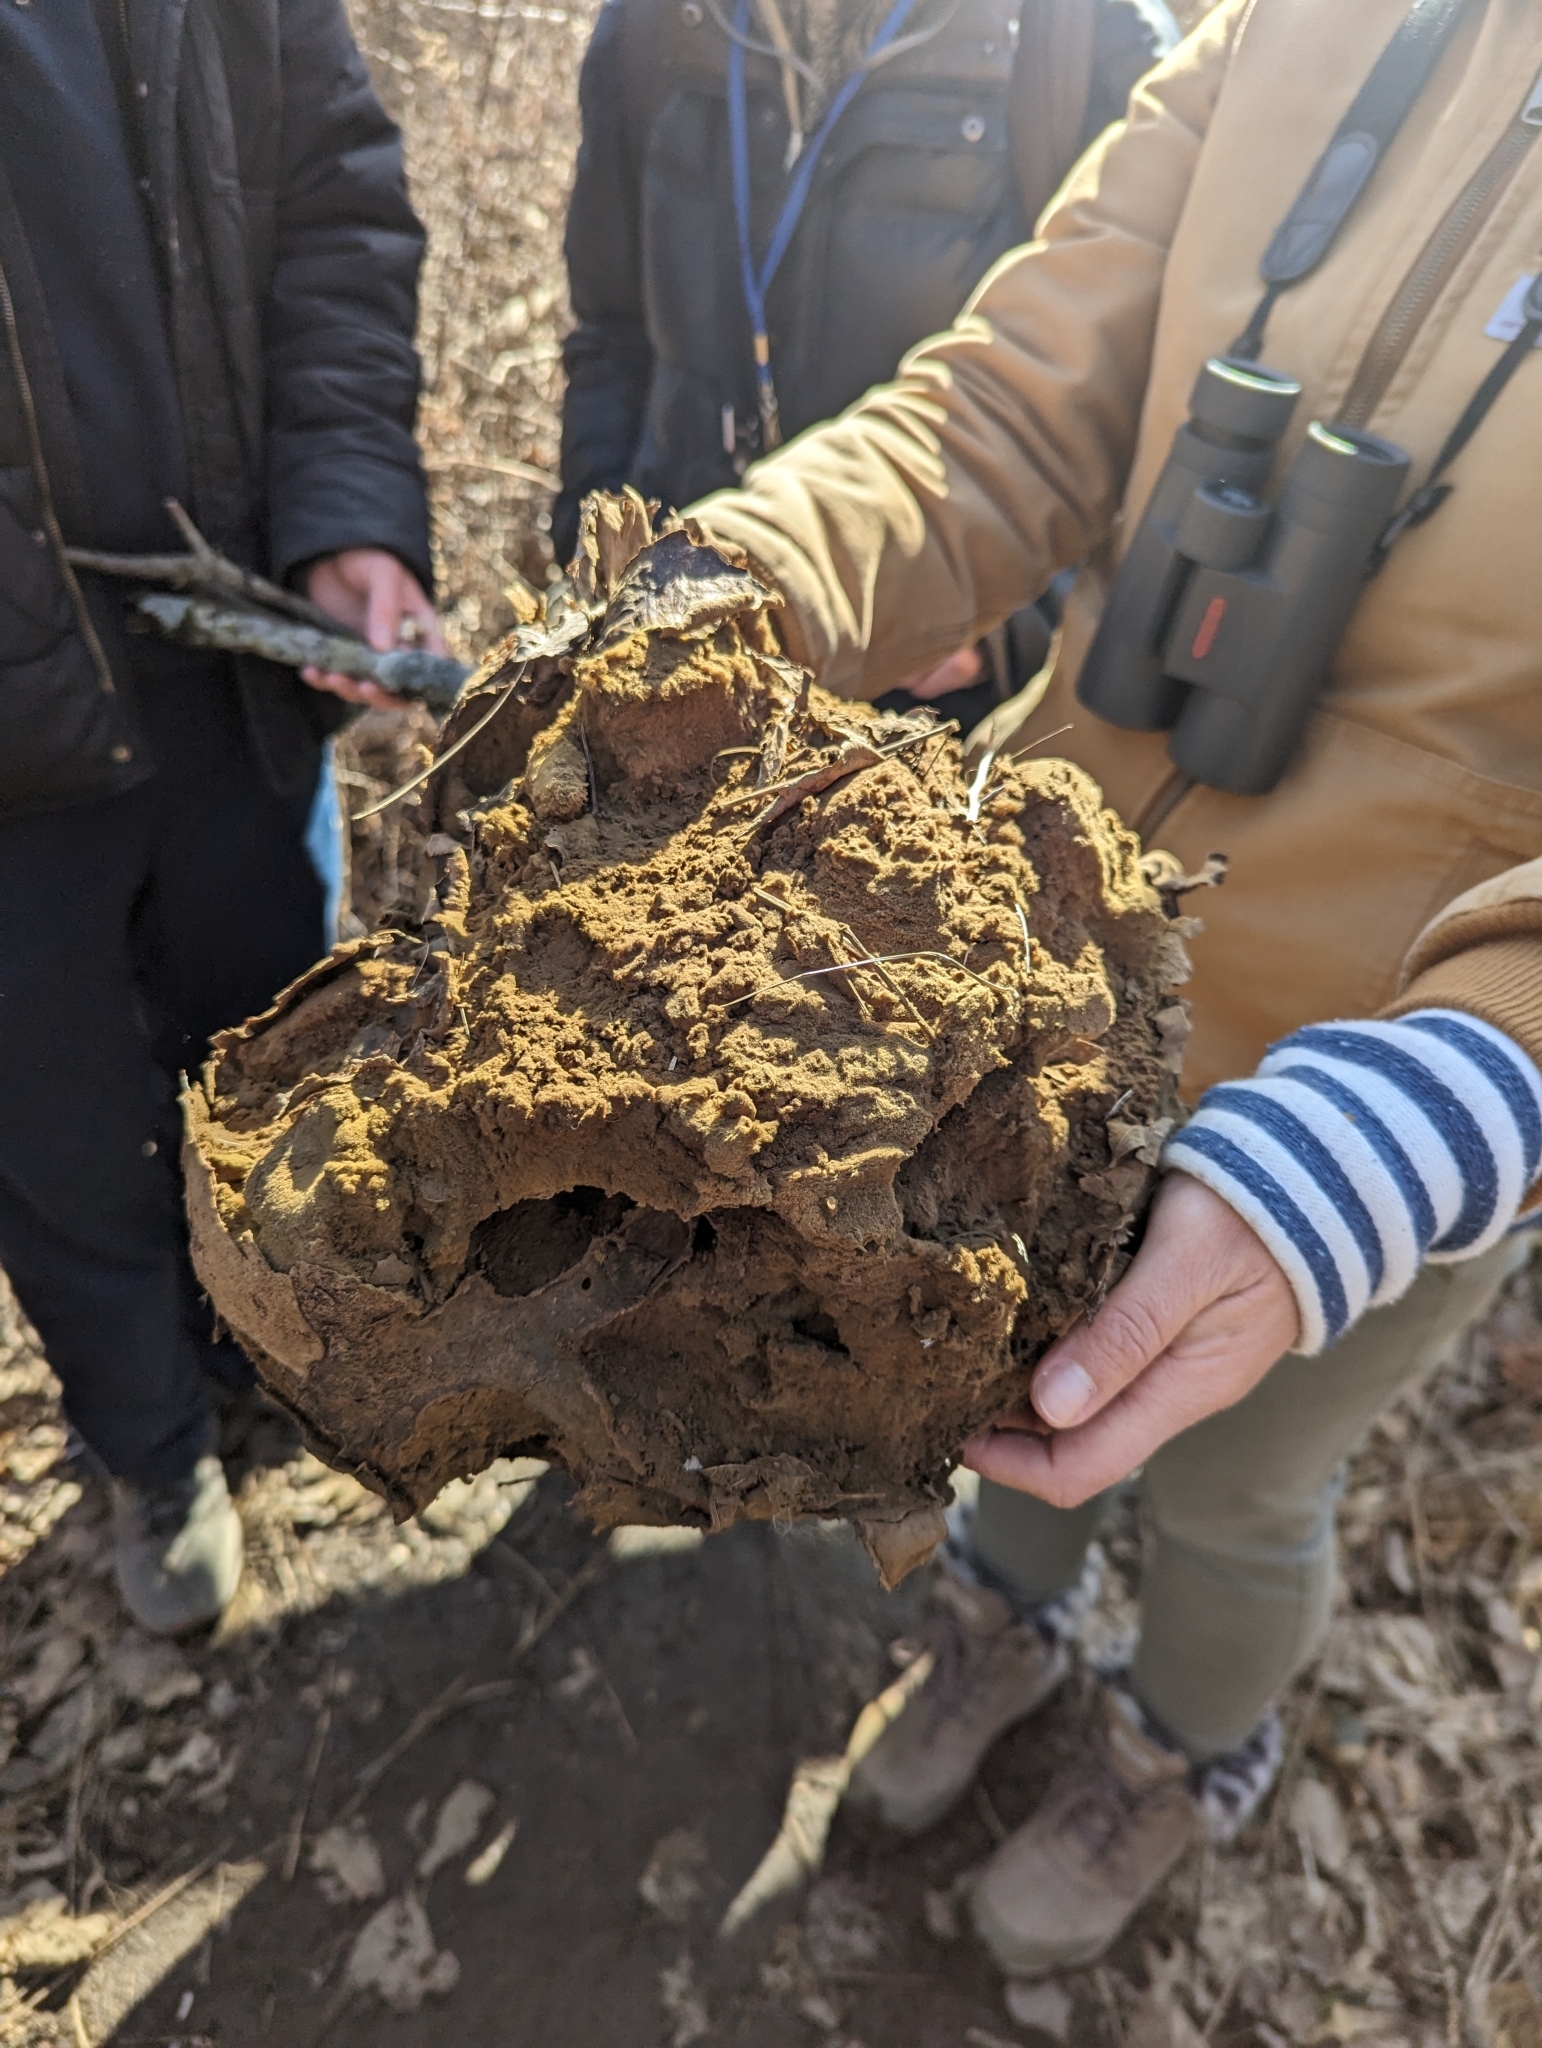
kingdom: Fungi
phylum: Basidiomycota
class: Agaricomycetes
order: Agaricales
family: Lycoperdaceae
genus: Calvatia
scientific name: Calvatia gigantea
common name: Giant puffball
